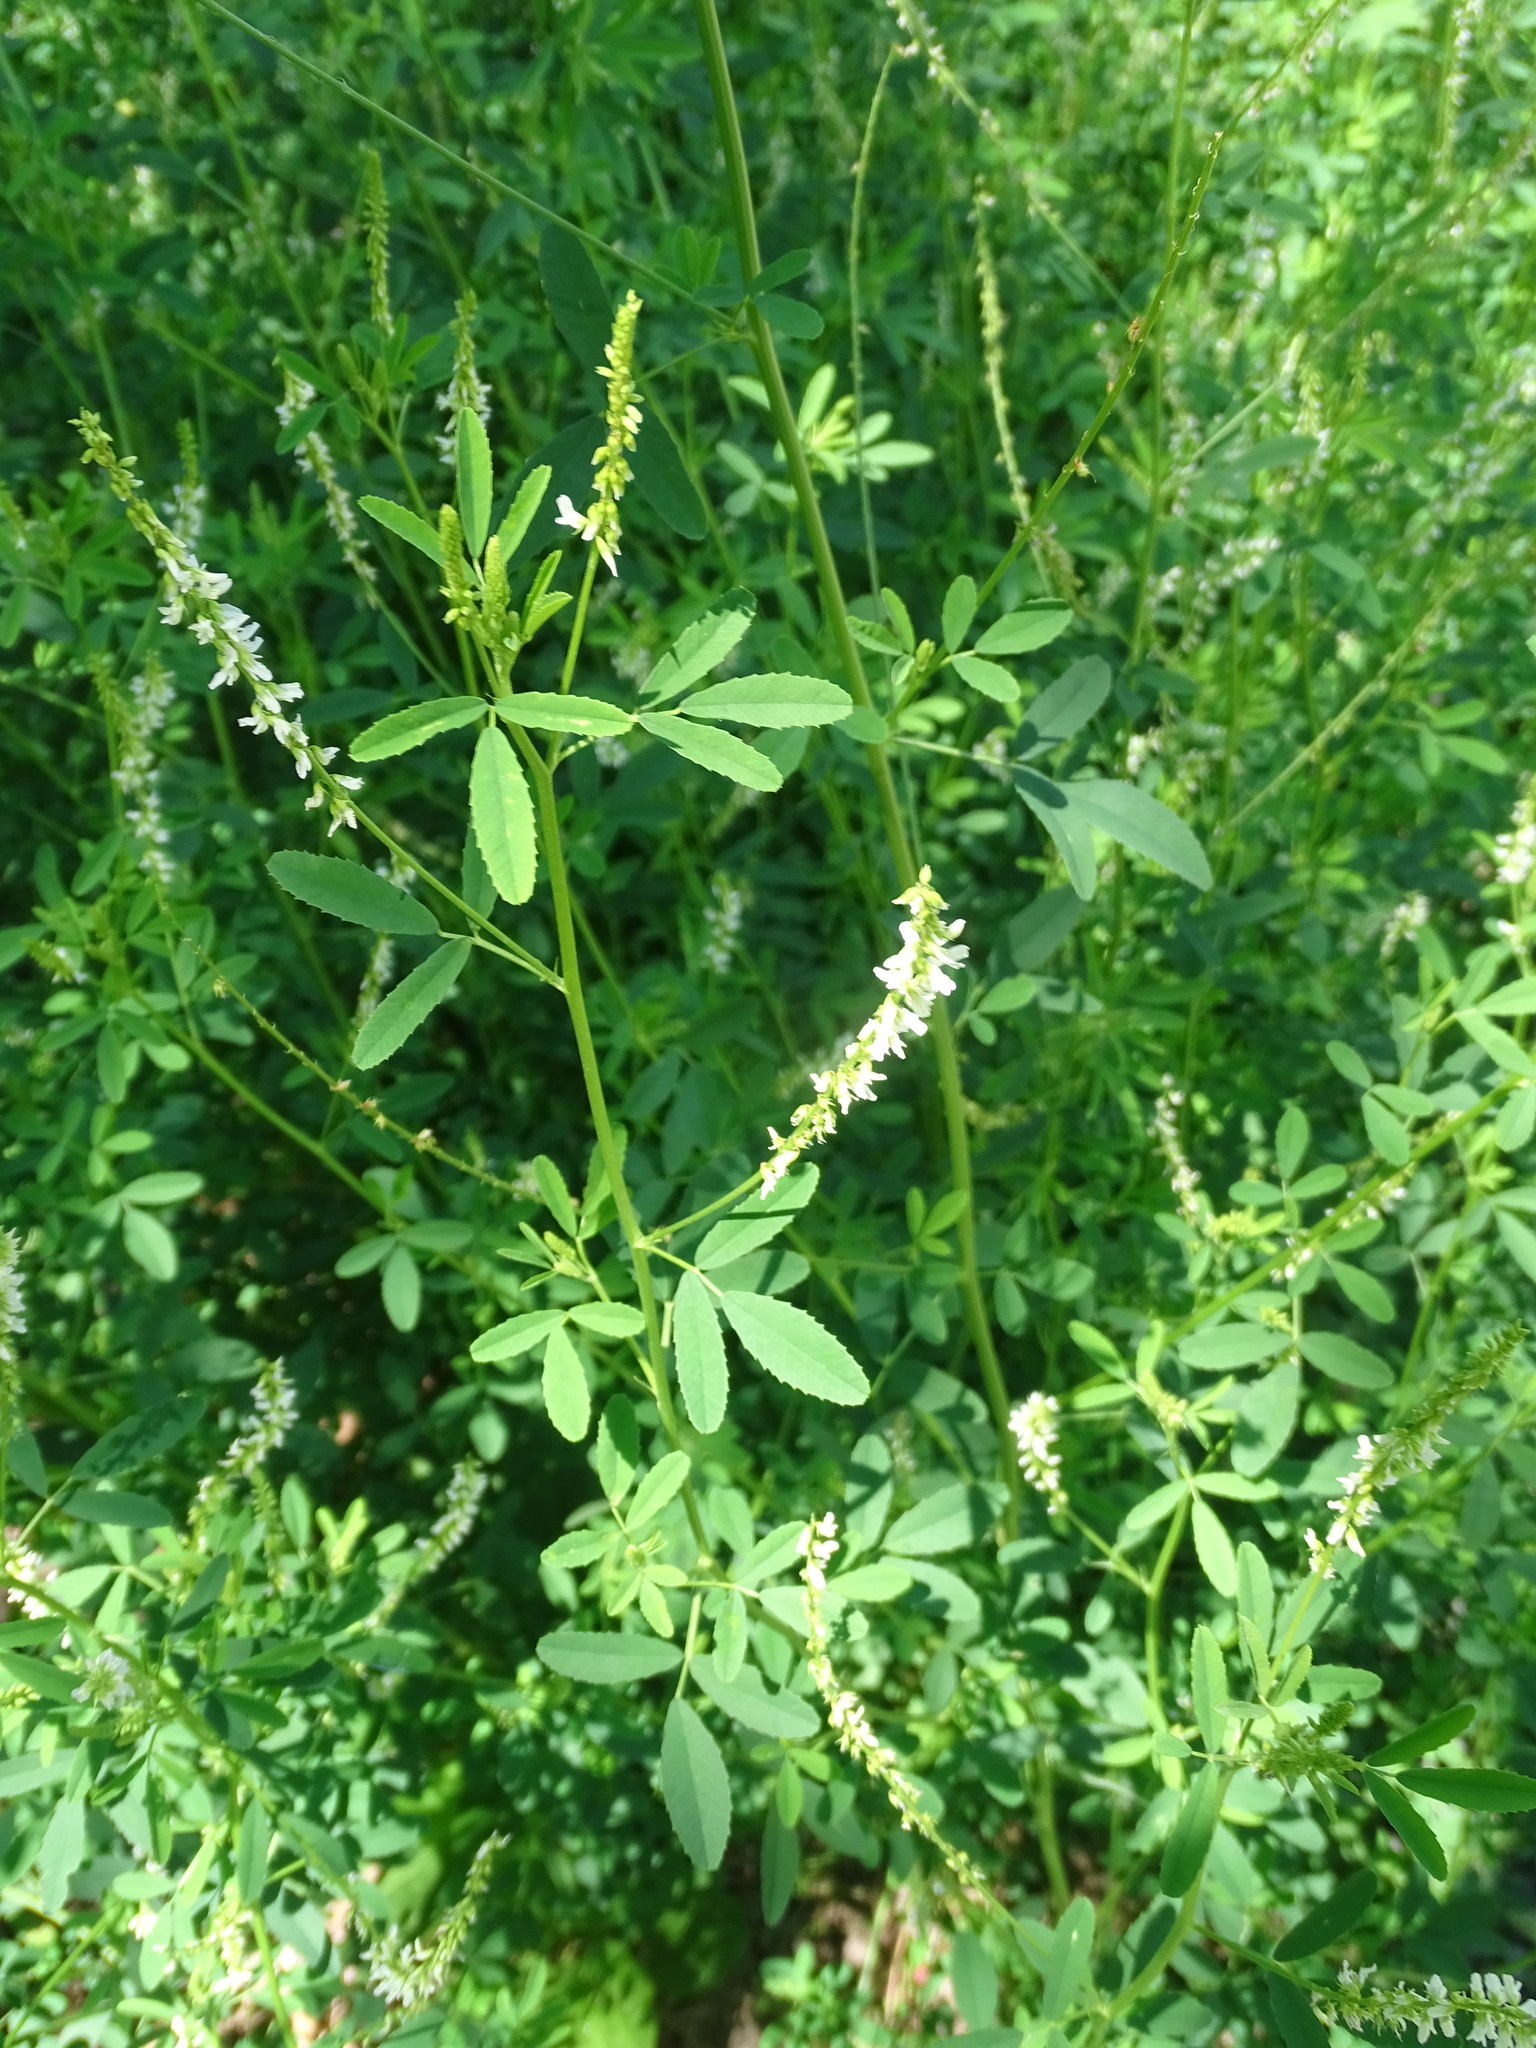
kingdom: Plantae
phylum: Tracheophyta
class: Magnoliopsida
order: Fabales
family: Fabaceae
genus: Melilotus
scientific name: Melilotus albus
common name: White melilot
